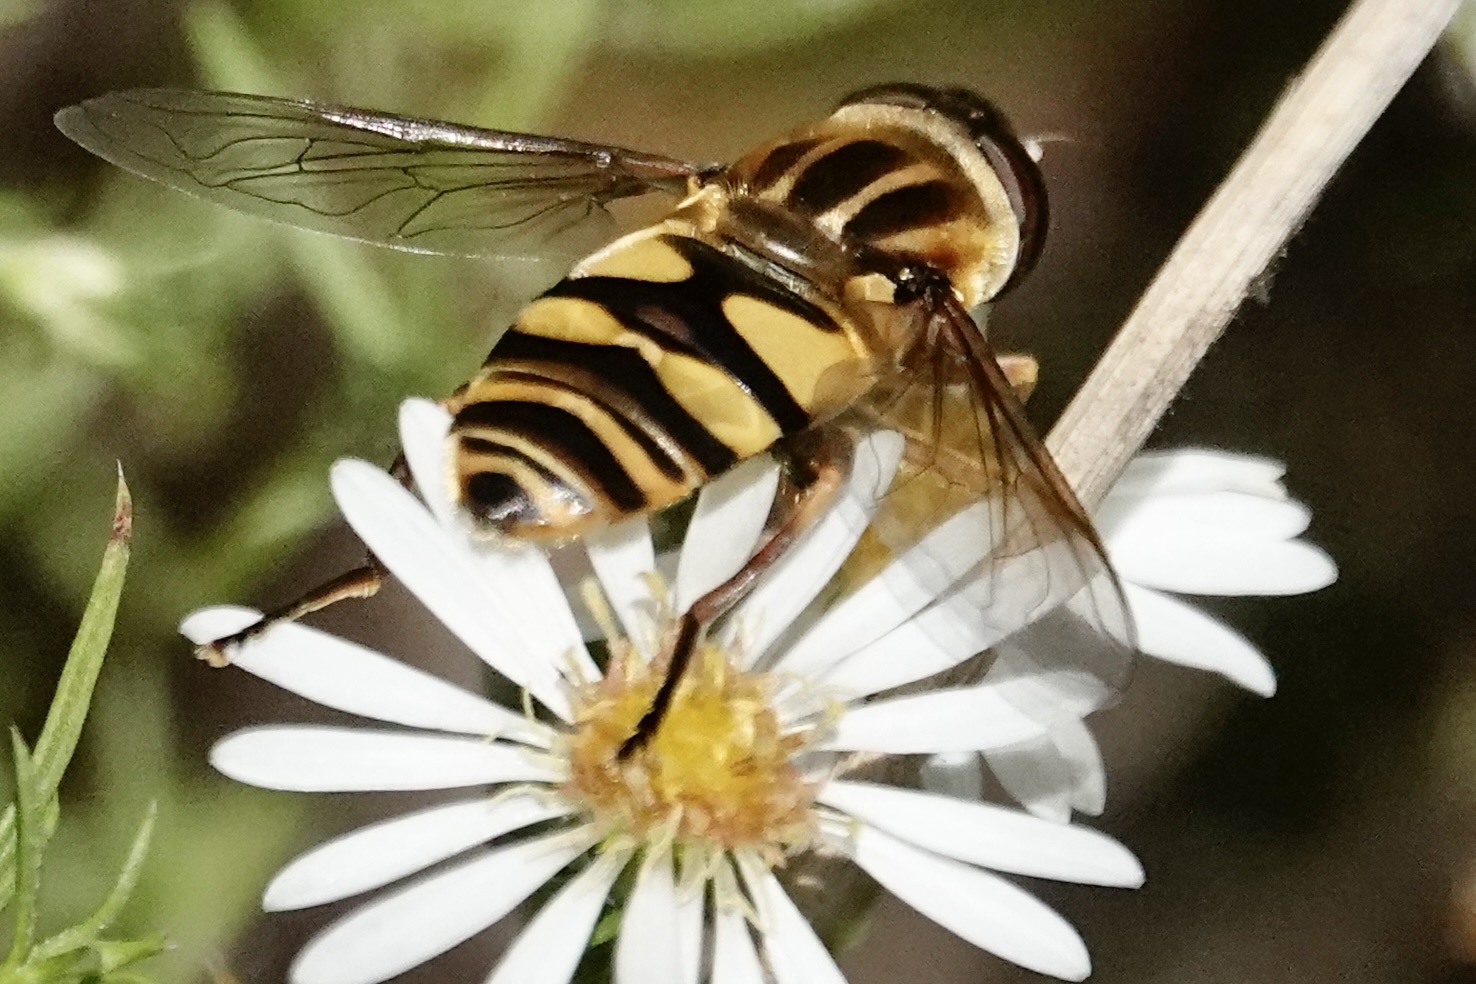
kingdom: Animalia
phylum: Arthropoda
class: Insecta
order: Diptera
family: Syrphidae
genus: Helophilus
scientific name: Helophilus fasciatus
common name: Narrow-headed marsh fly
